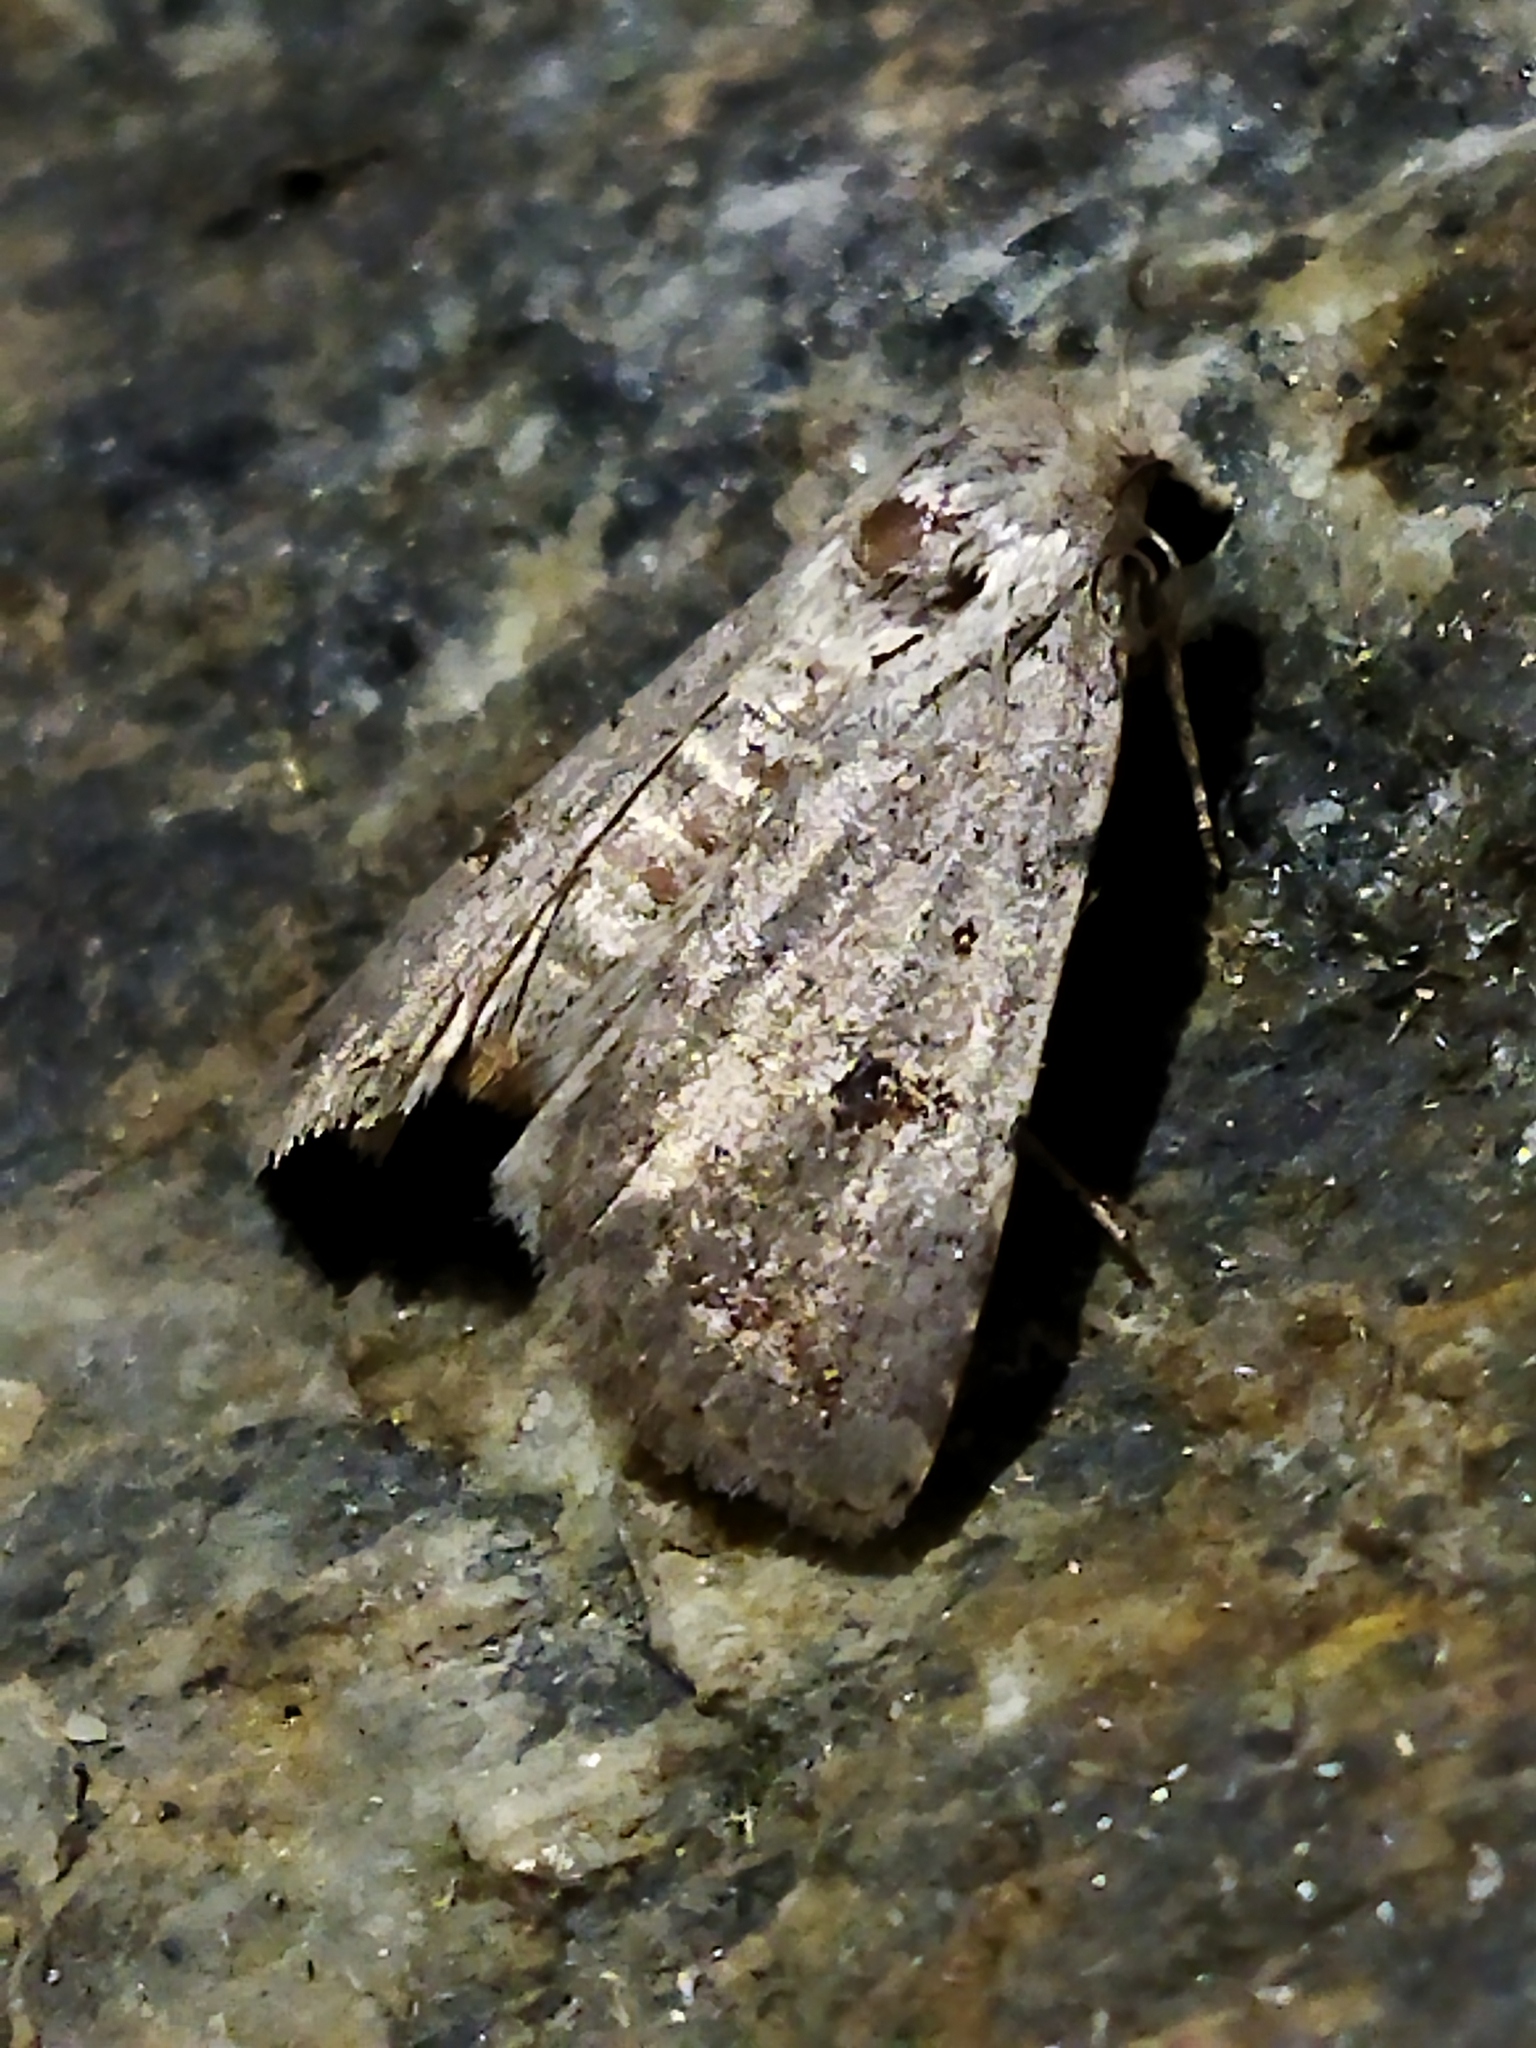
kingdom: Animalia
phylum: Arthropoda
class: Insecta
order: Lepidoptera
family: Noctuidae
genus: Caradrina
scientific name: Caradrina kadenii
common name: Clancy's rustic
